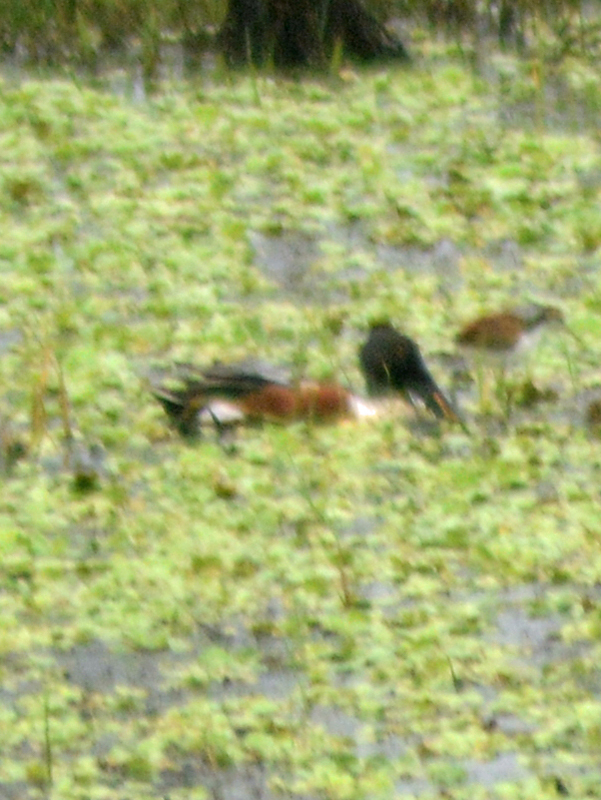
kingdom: Animalia
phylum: Chordata
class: Aves
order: Anseriformes
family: Anatidae
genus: Spatula
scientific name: Spatula clypeata
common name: Northern shoveler
